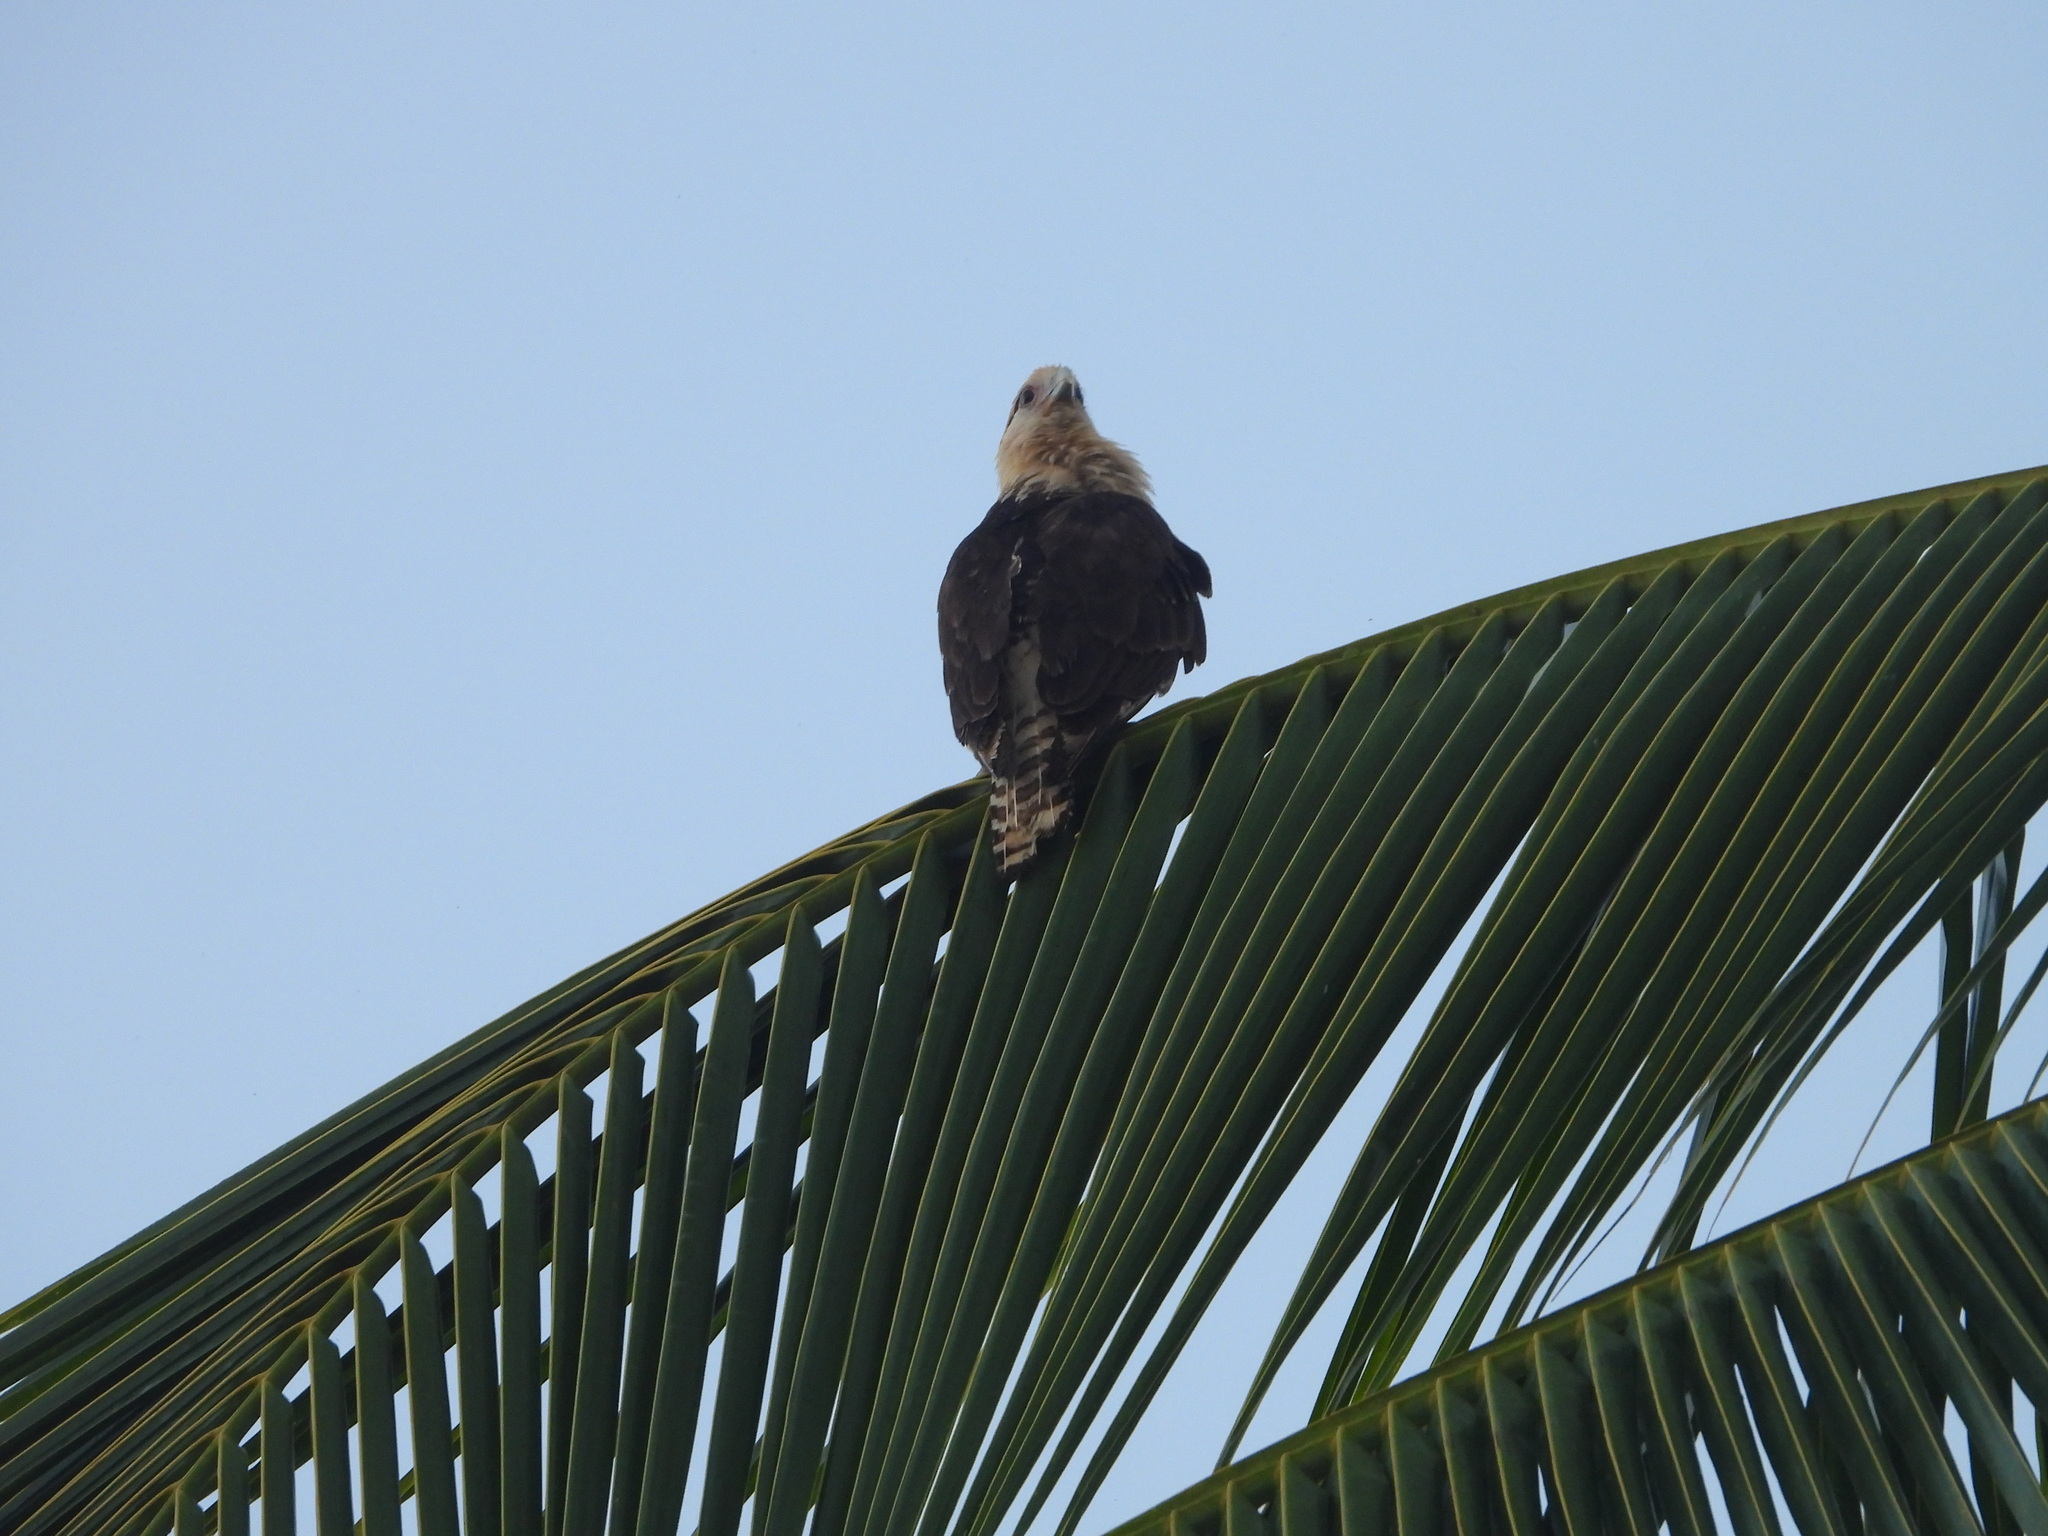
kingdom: Animalia
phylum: Chordata
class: Aves
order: Falconiformes
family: Falconidae
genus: Daptrius
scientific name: Daptrius
